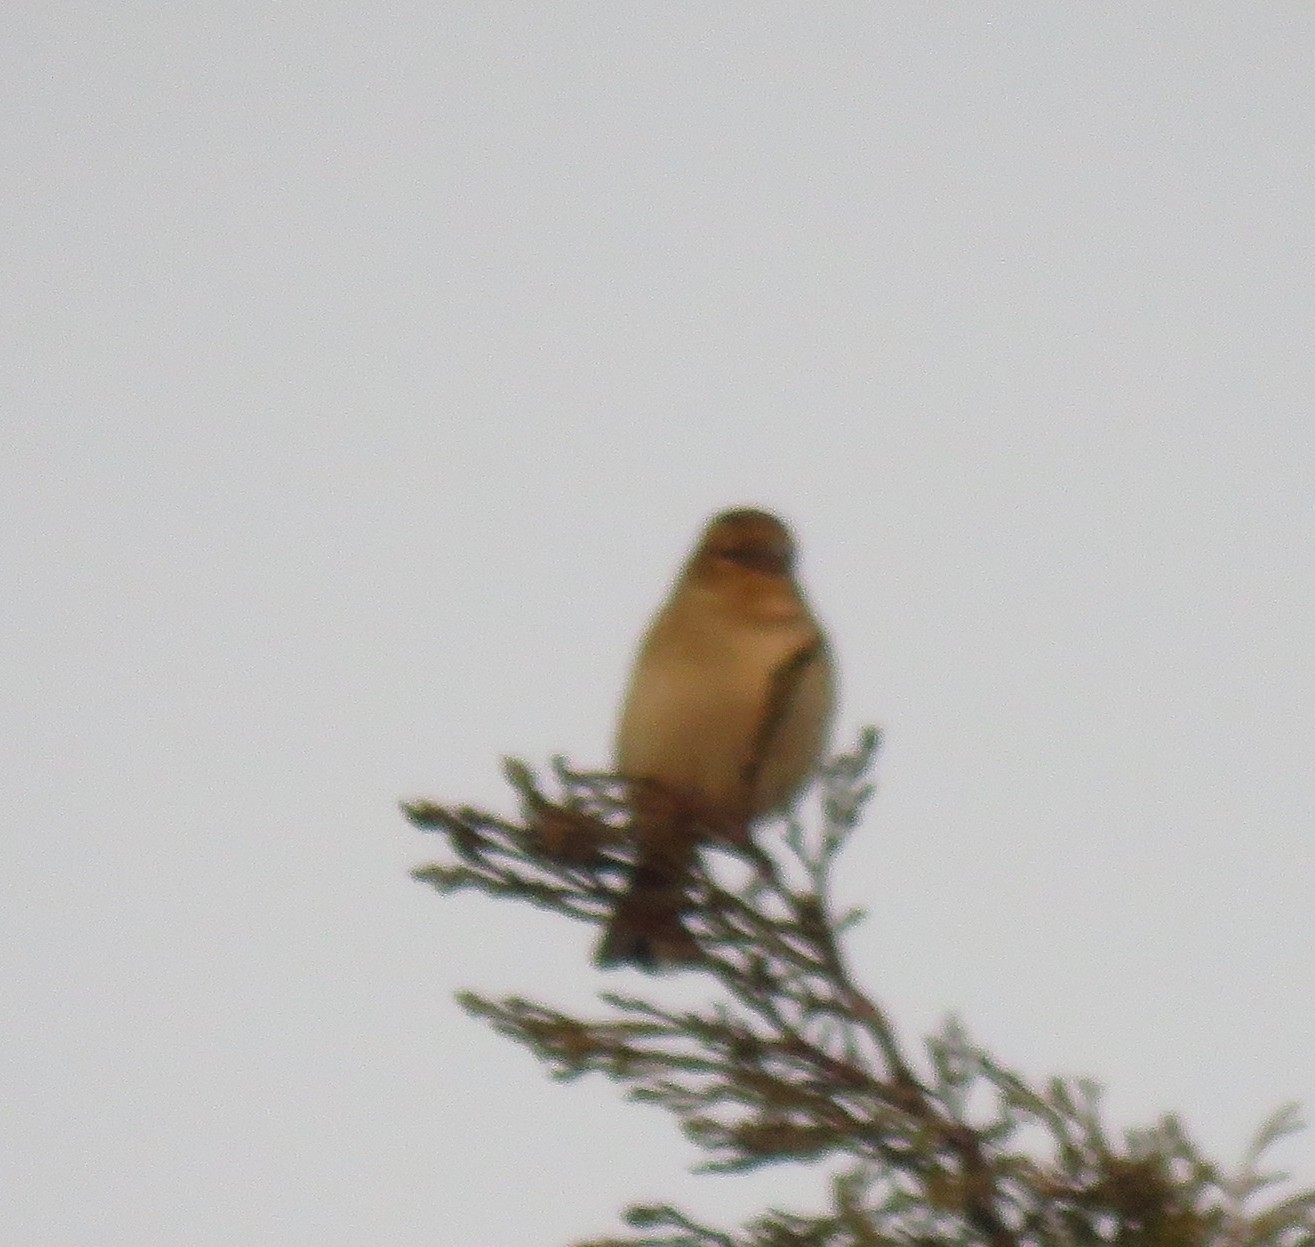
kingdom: Animalia
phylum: Chordata
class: Aves
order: Passeriformes
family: Fringillidae
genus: Fringilla
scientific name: Fringilla coelebs
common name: Common chaffinch
